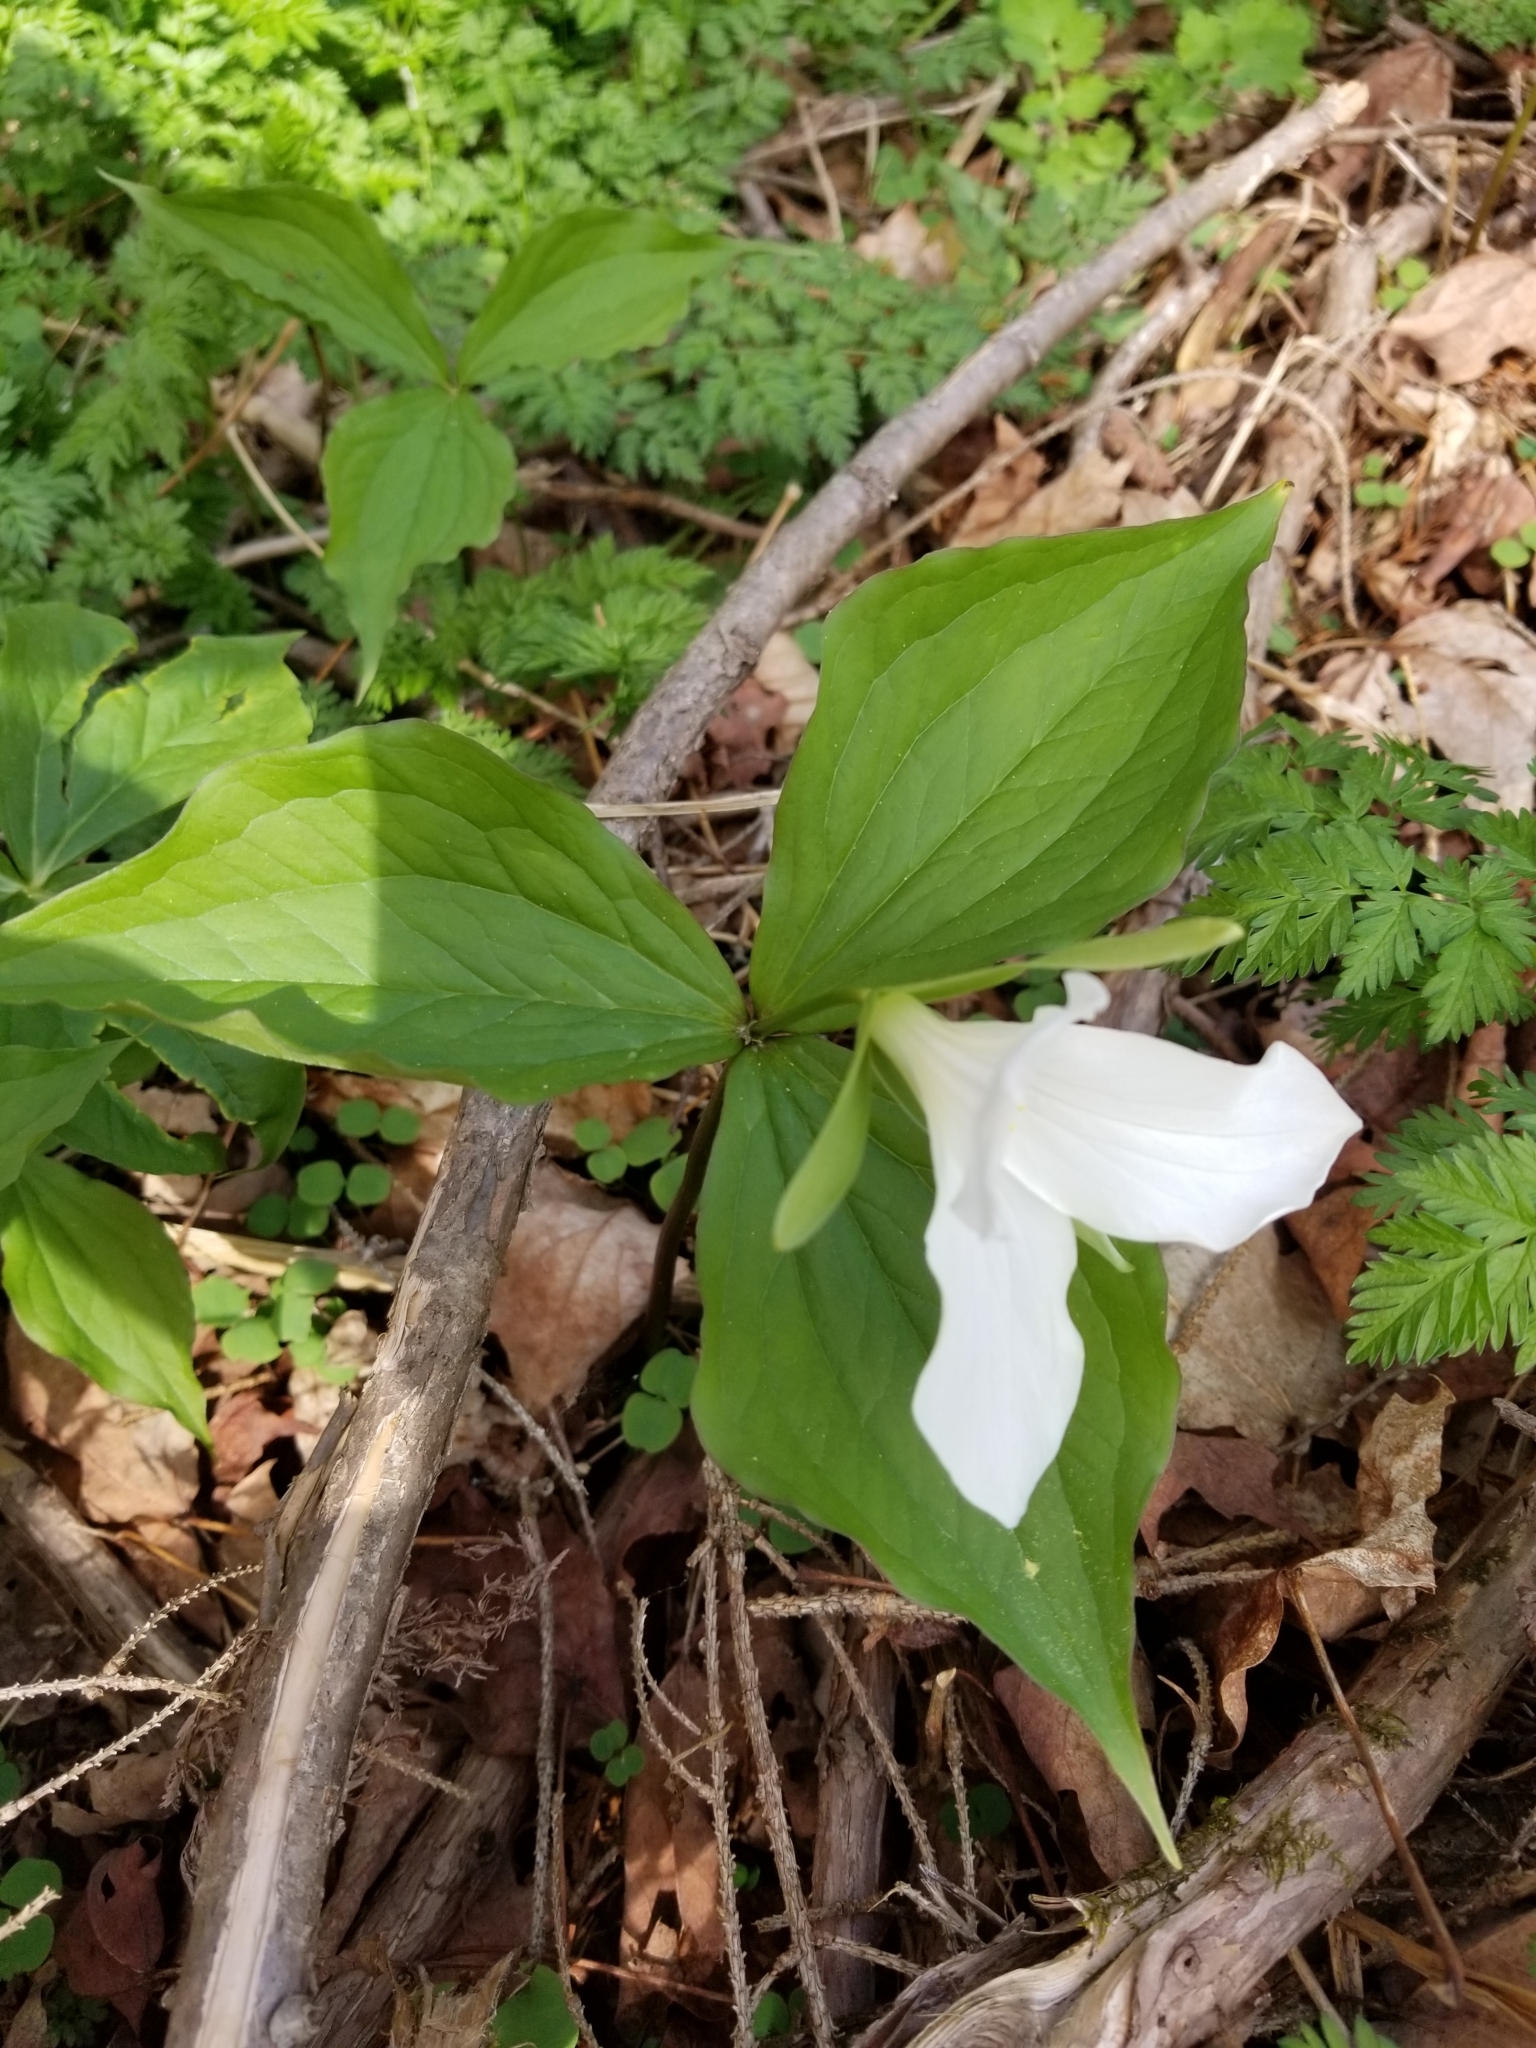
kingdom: Plantae
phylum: Tracheophyta
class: Liliopsida
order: Liliales
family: Melanthiaceae
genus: Trillium
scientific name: Trillium grandiflorum
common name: Great white trillium
